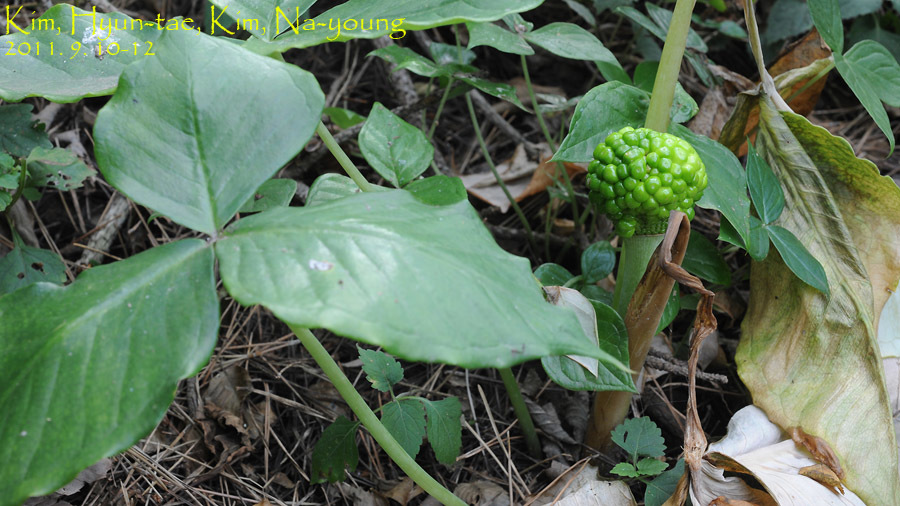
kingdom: Plantae
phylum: Tracheophyta
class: Liliopsida
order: Alismatales
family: Araceae
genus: Arisaema
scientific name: Arisaema ringens
